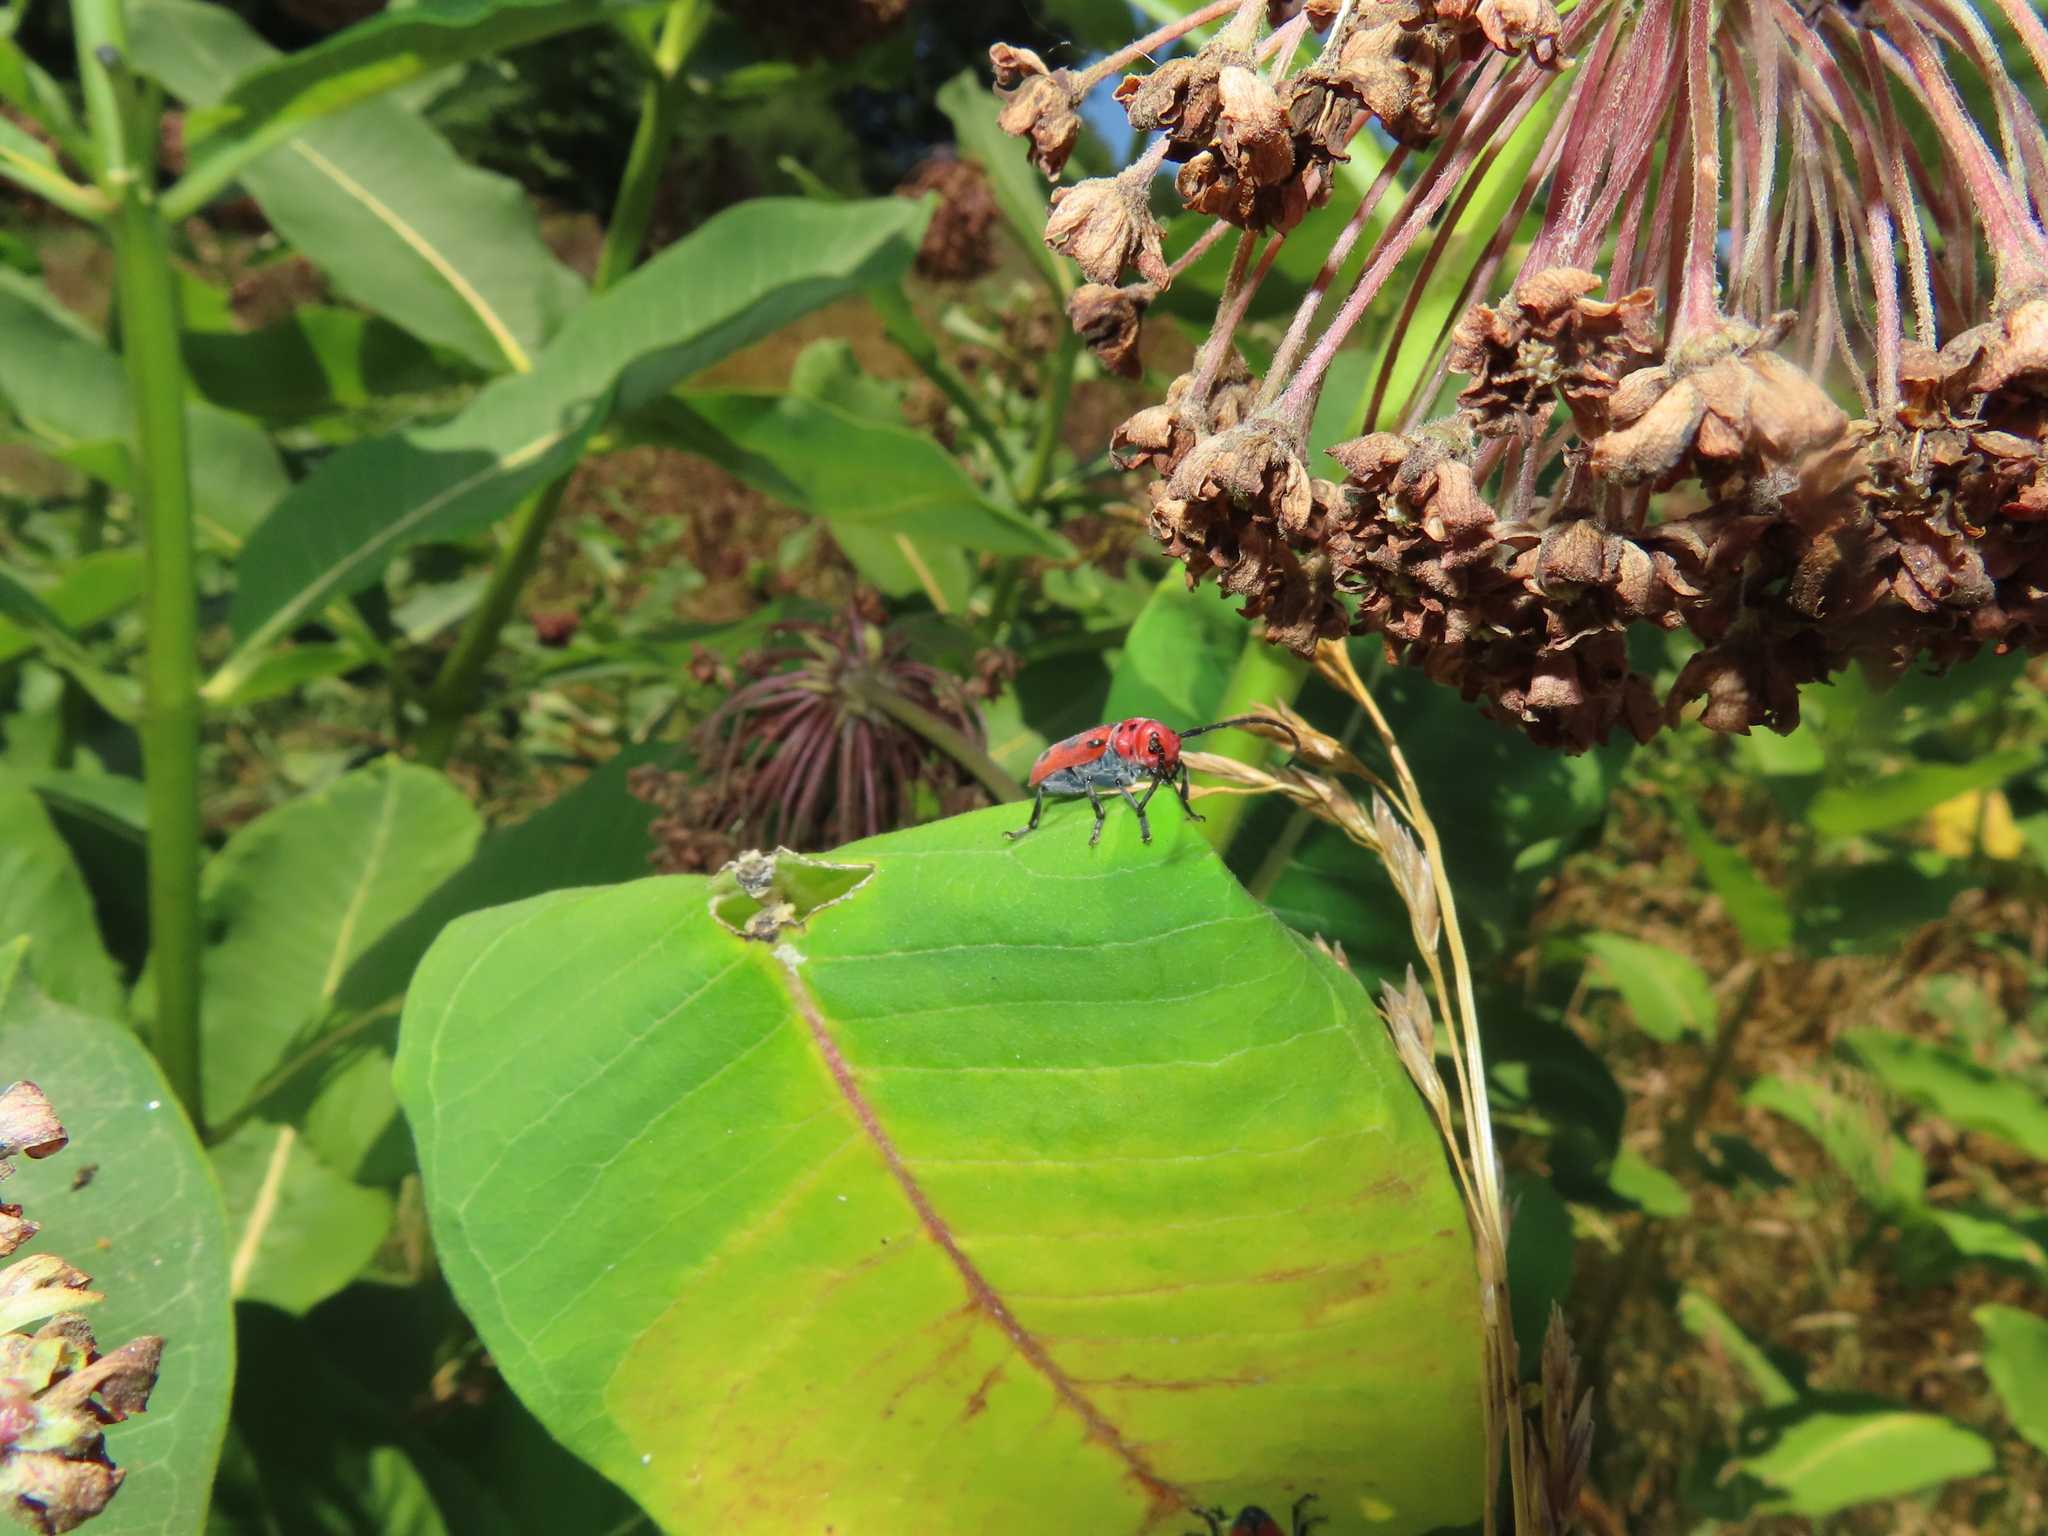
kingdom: Animalia
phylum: Arthropoda
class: Insecta
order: Coleoptera
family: Cerambycidae
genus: Tetraopes
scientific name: Tetraopes tetrophthalmus
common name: Red milkweed beetle
